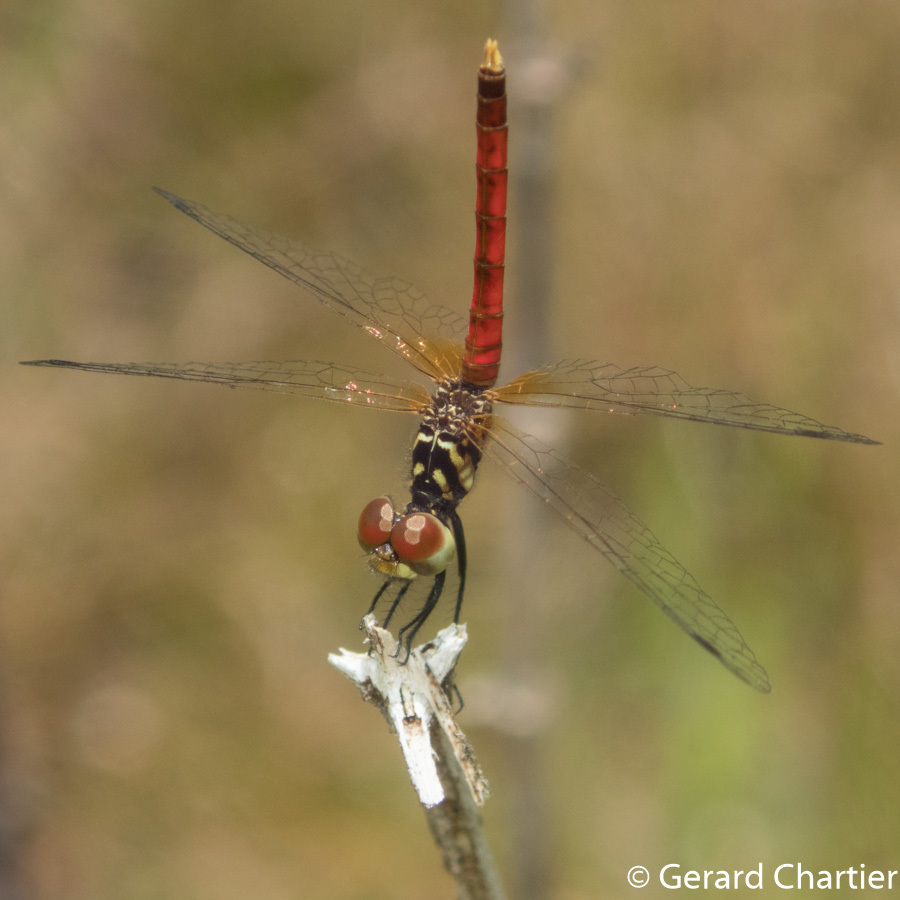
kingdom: Animalia
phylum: Arthropoda
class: Insecta
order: Odonata
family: Libellulidae
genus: Nannophya
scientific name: Nannophya pygmaea
